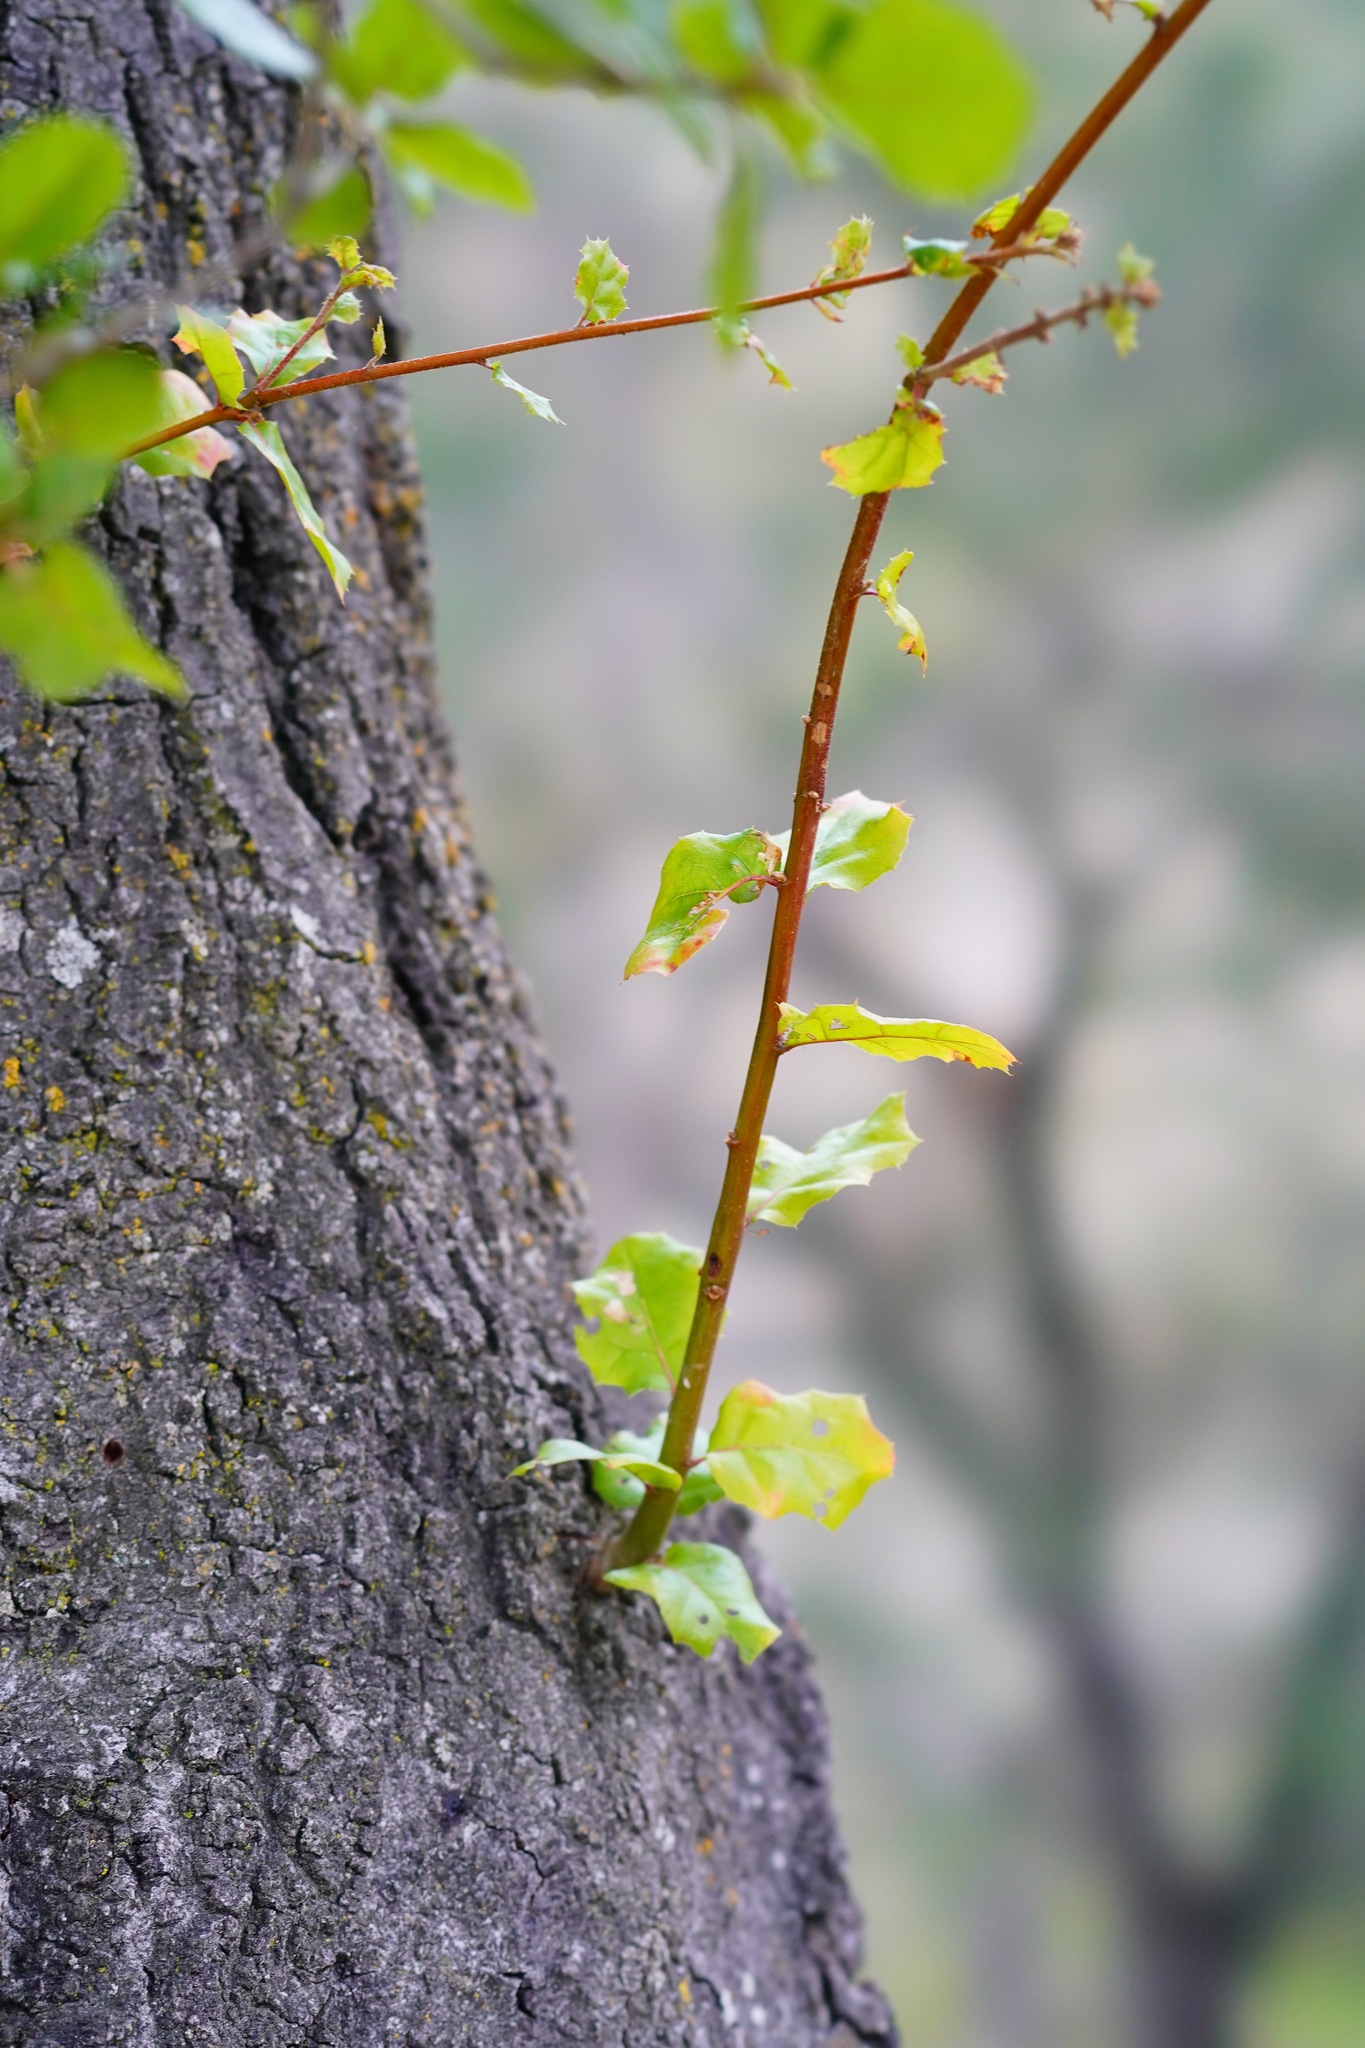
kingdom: Plantae
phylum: Tracheophyta
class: Magnoliopsida
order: Fagales
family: Fagaceae
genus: Quercus
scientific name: Quercus agrifolia
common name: California live oak
